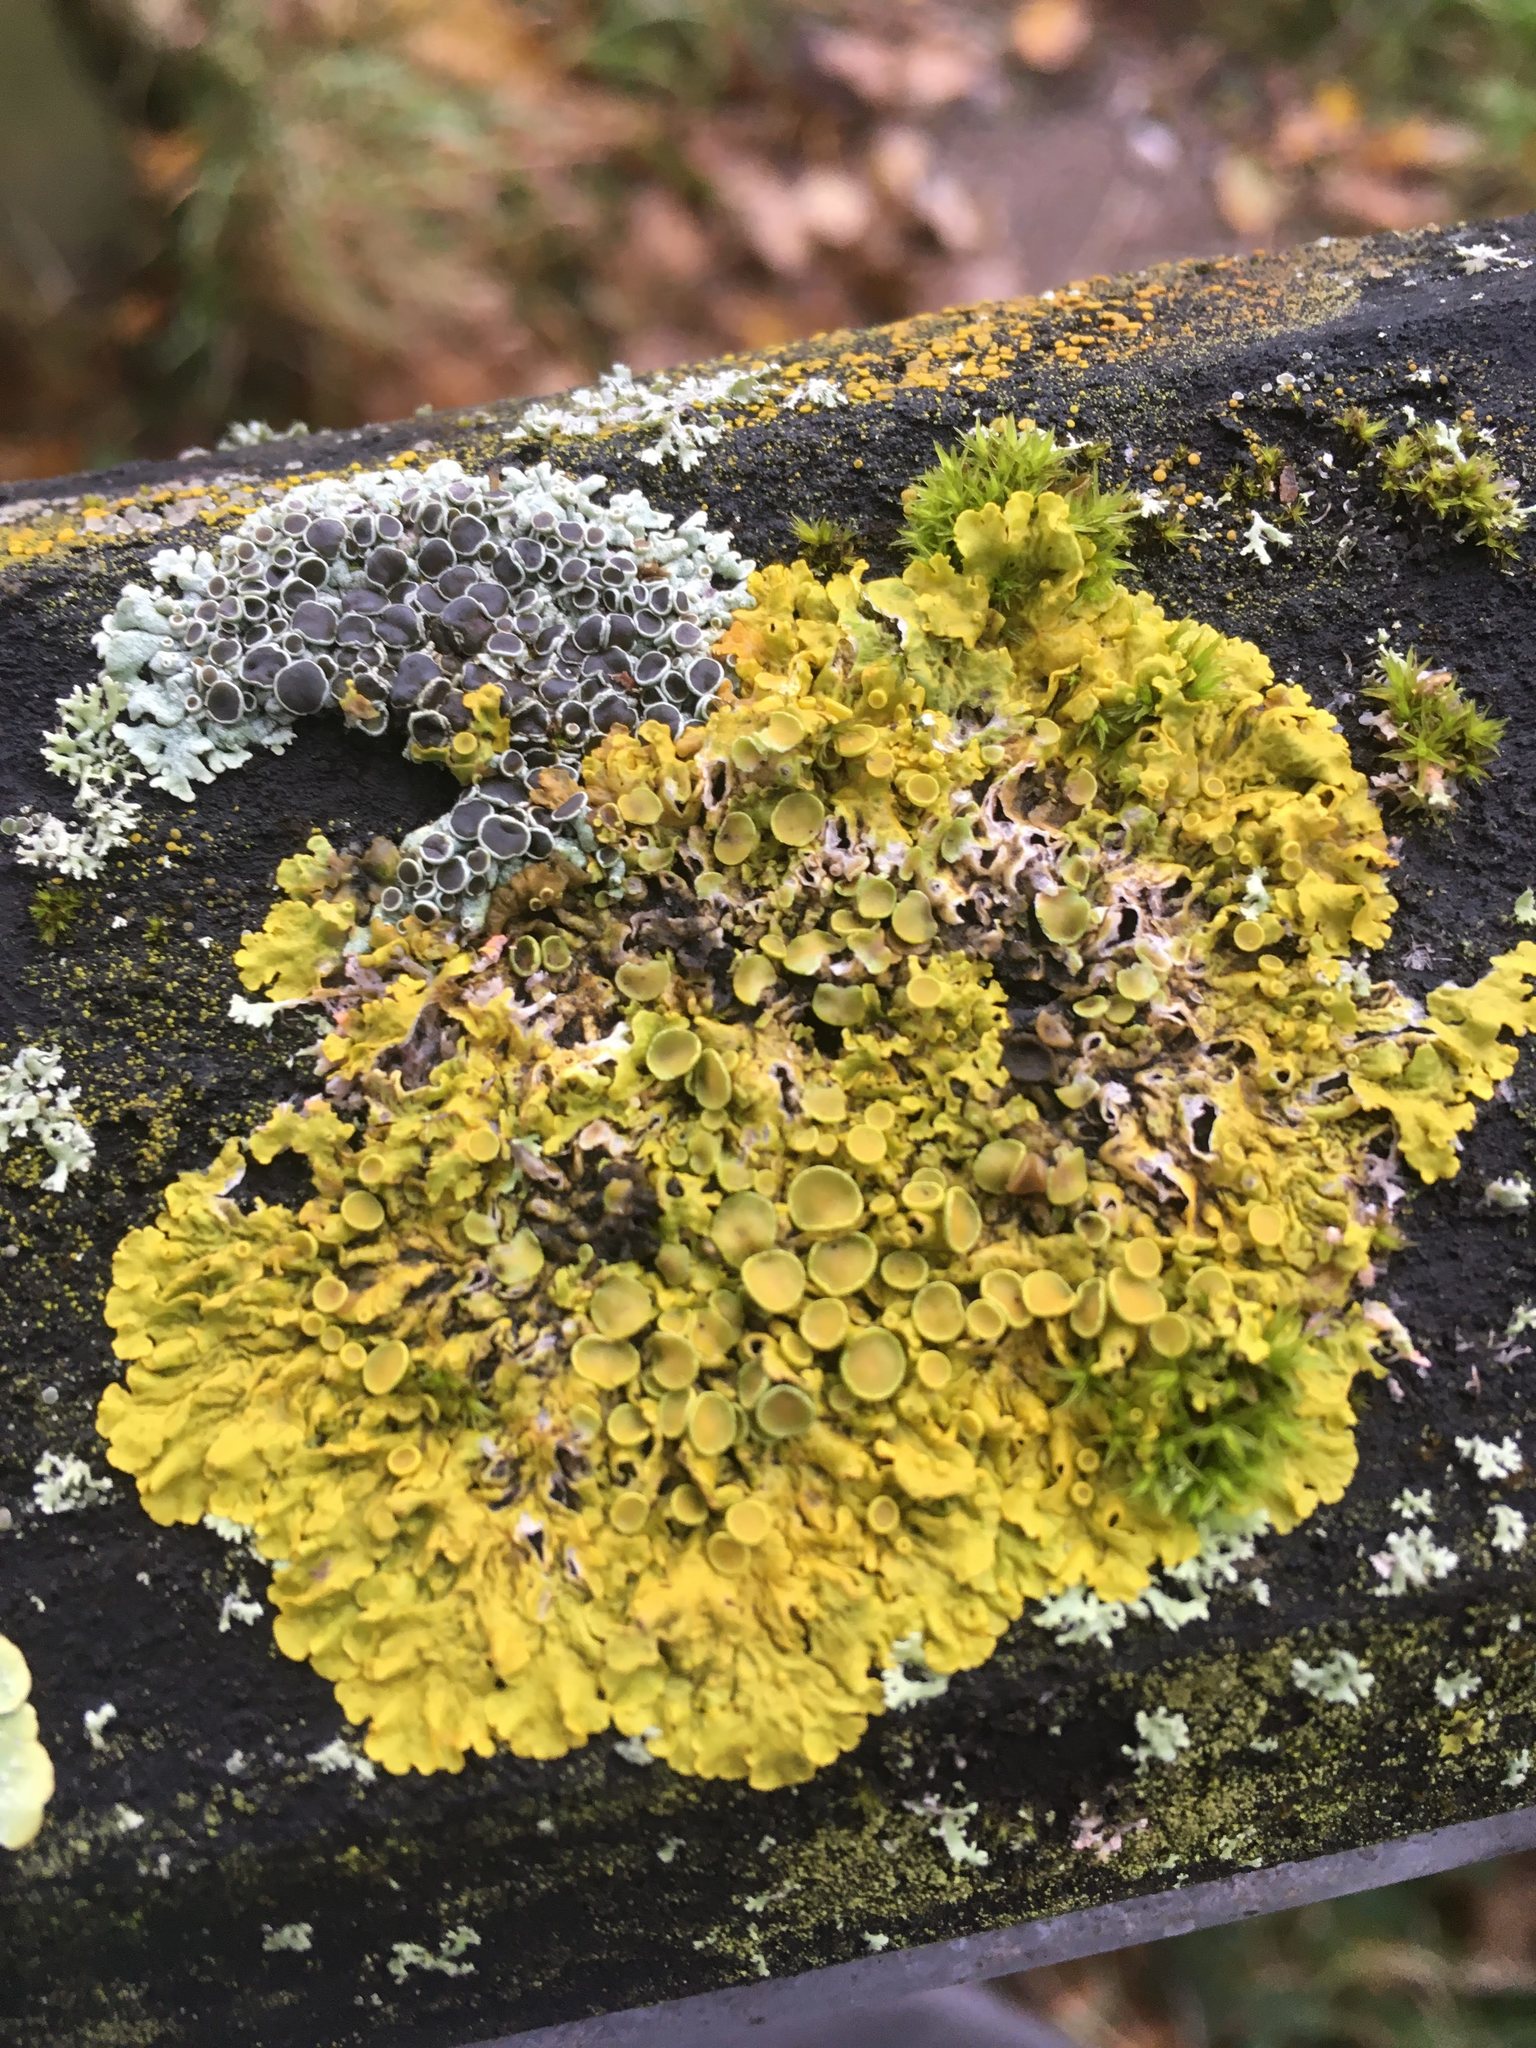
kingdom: Fungi
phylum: Ascomycota
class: Lecanoromycetes
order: Teloschistales
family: Teloschistaceae
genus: Xanthoria
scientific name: Xanthoria parietina
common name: Common orange lichen
